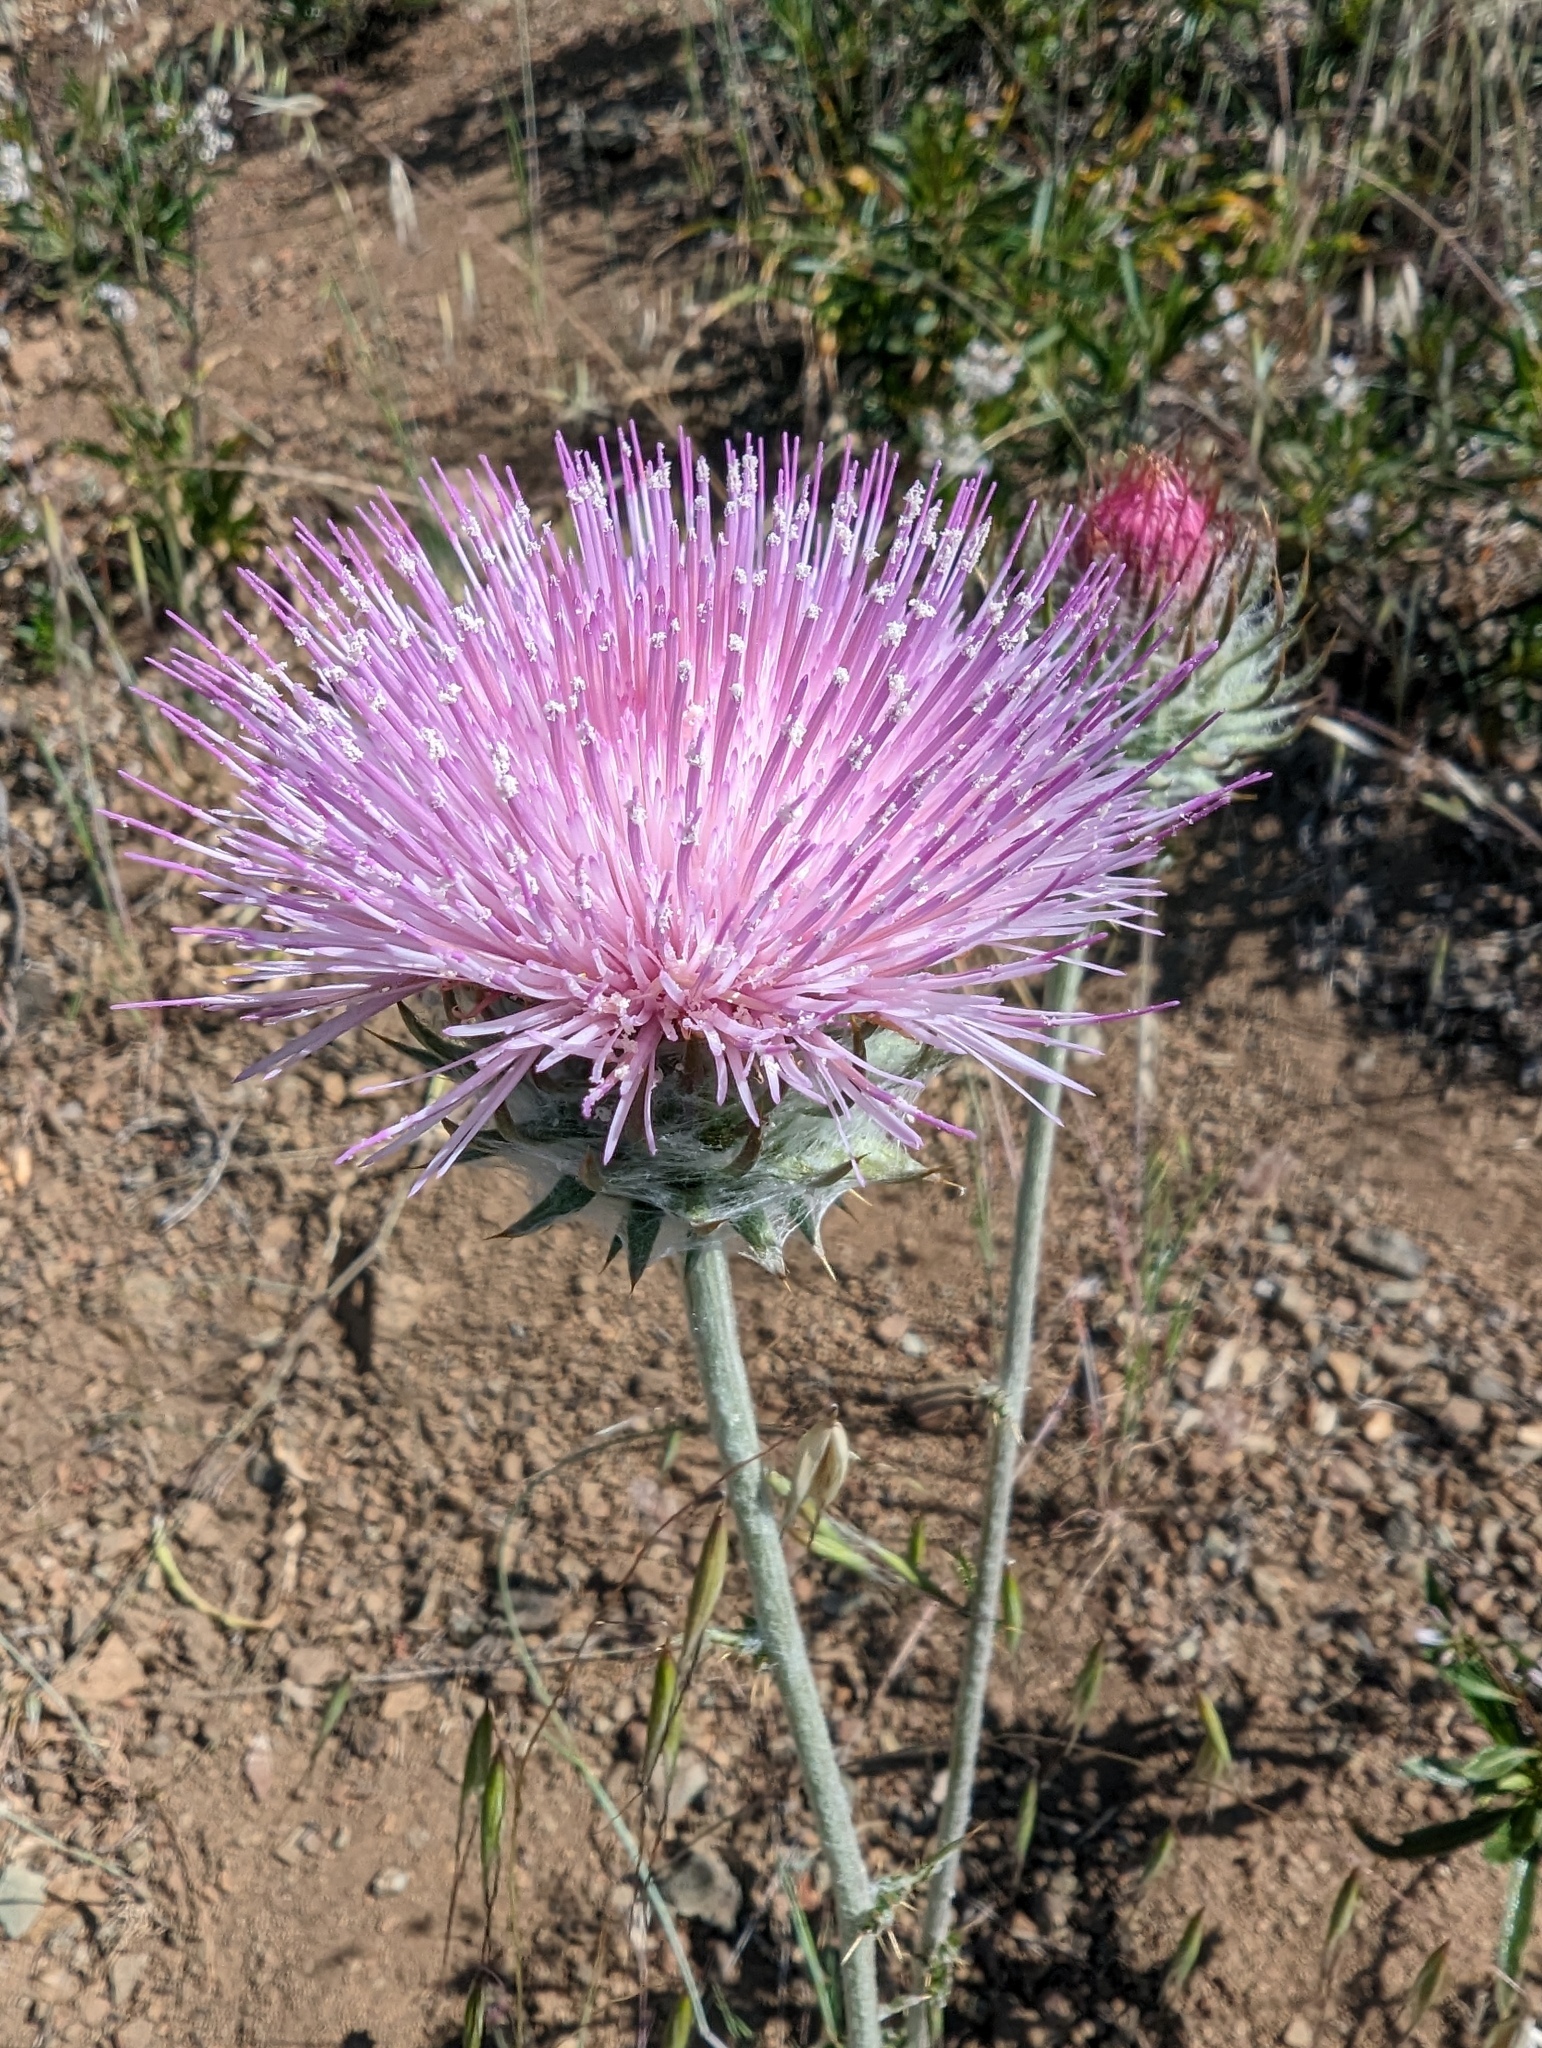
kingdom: Plantae
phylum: Tracheophyta
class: Magnoliopsida
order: Asterales
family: Asteraceae
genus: Cirsium
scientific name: Cirsium occidentale
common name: Western thistle
